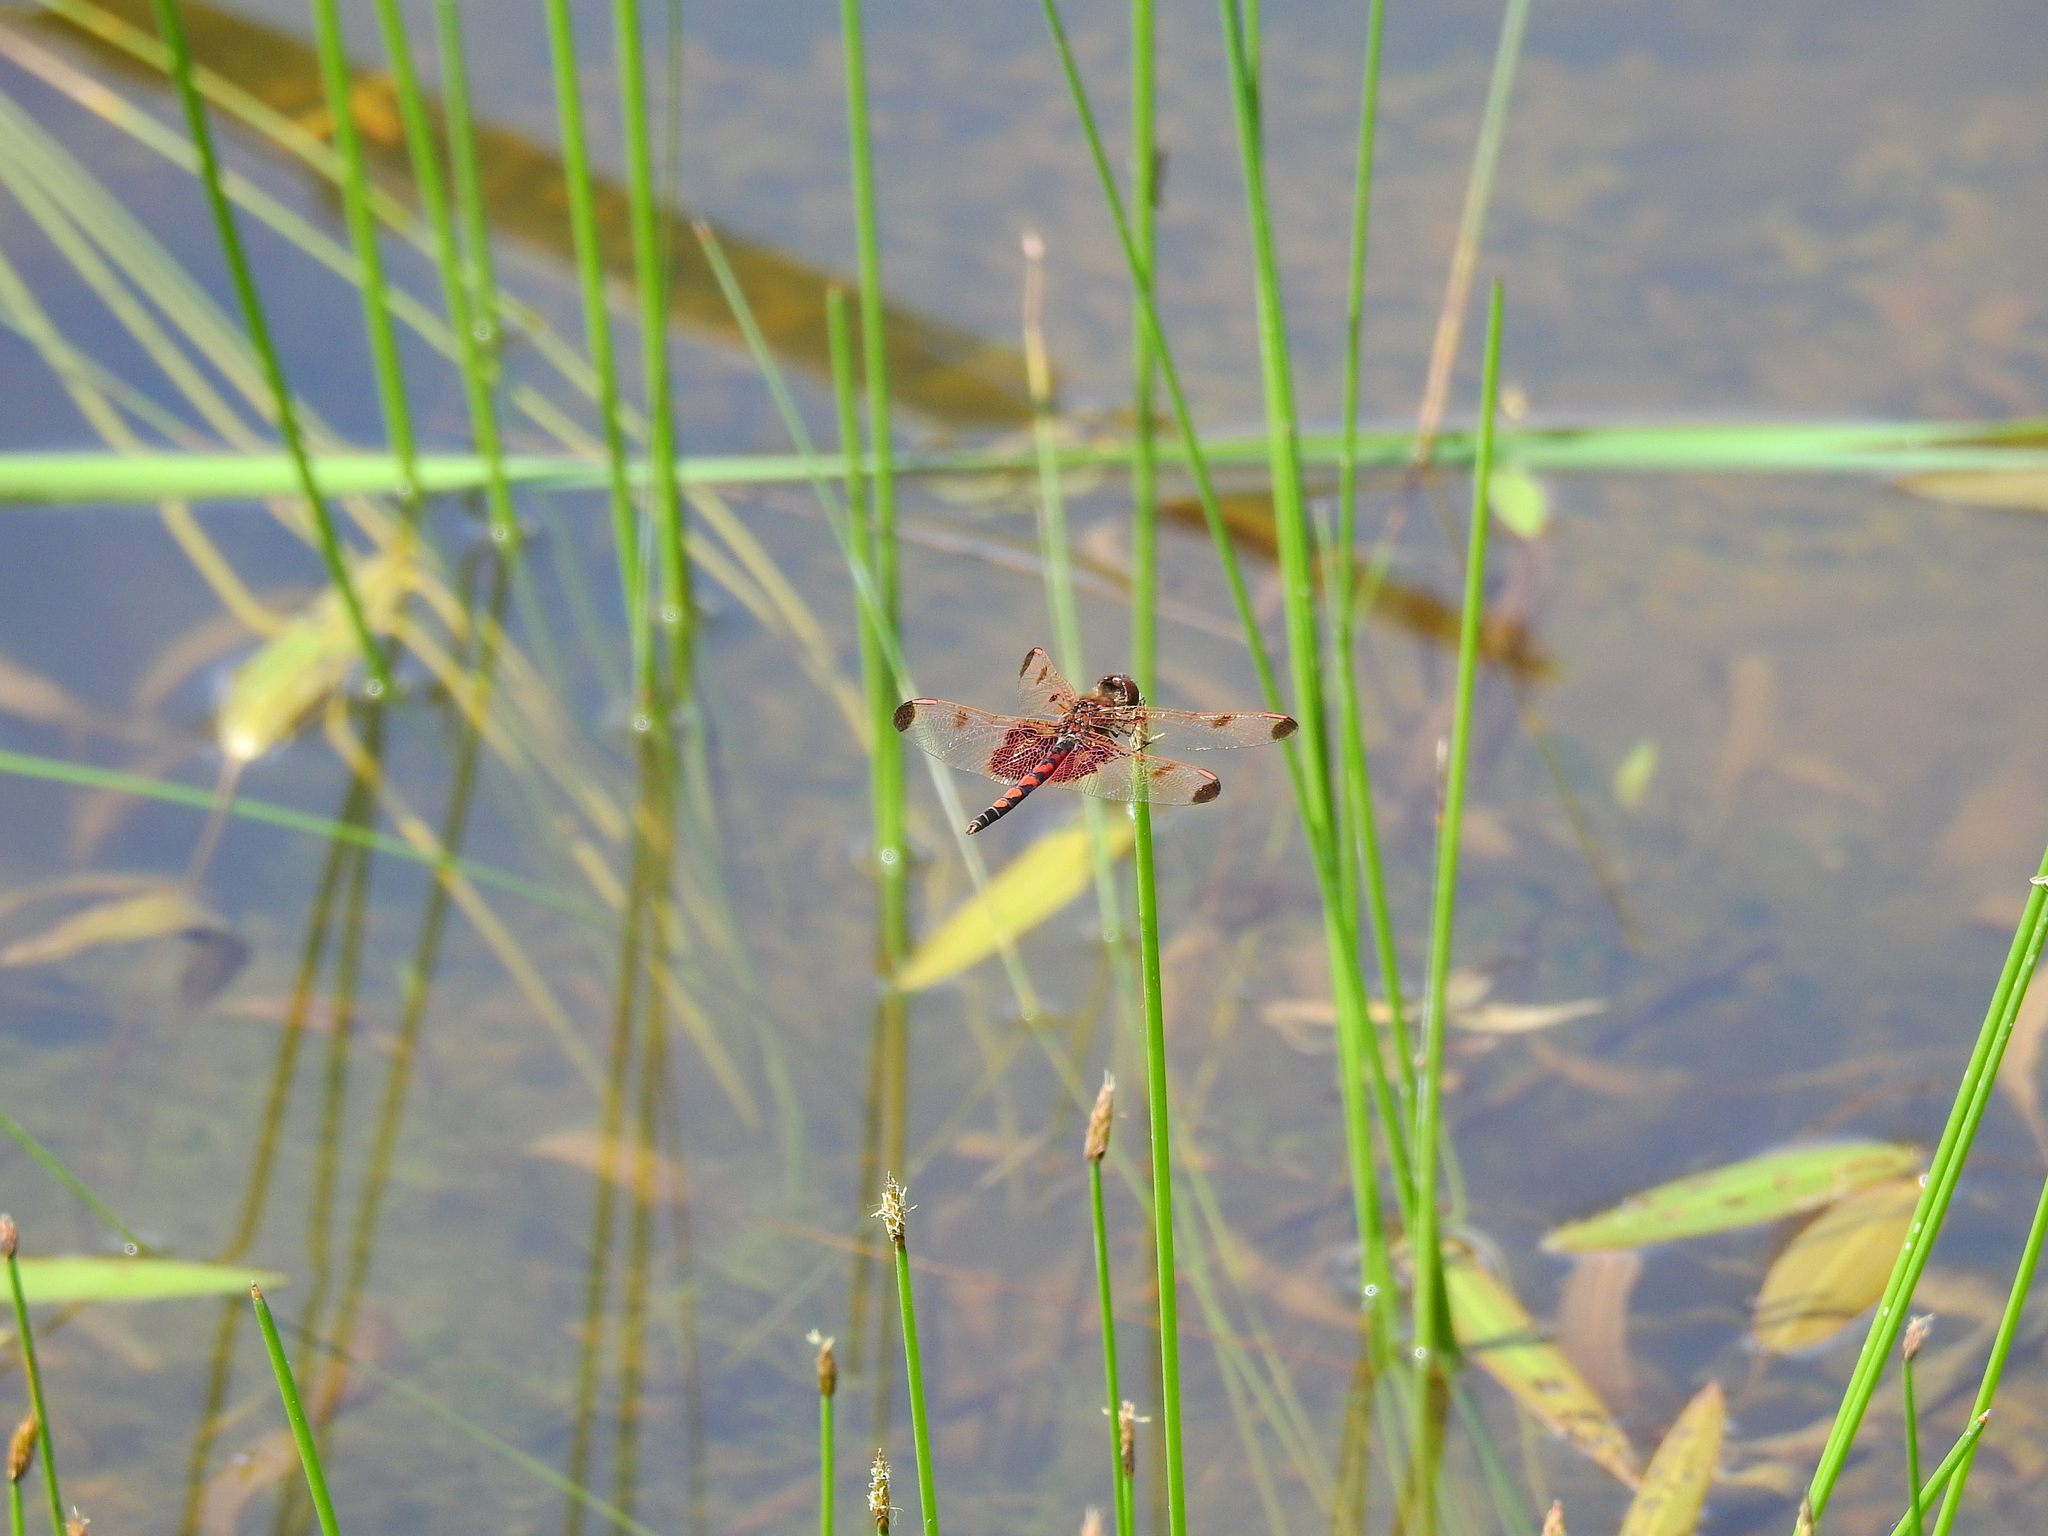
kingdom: Animalia
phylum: Arthropoda
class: Insecta
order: Odonata
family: Libellulidae
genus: Celithemis
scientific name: Celithemis elisa
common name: Calico pennant
